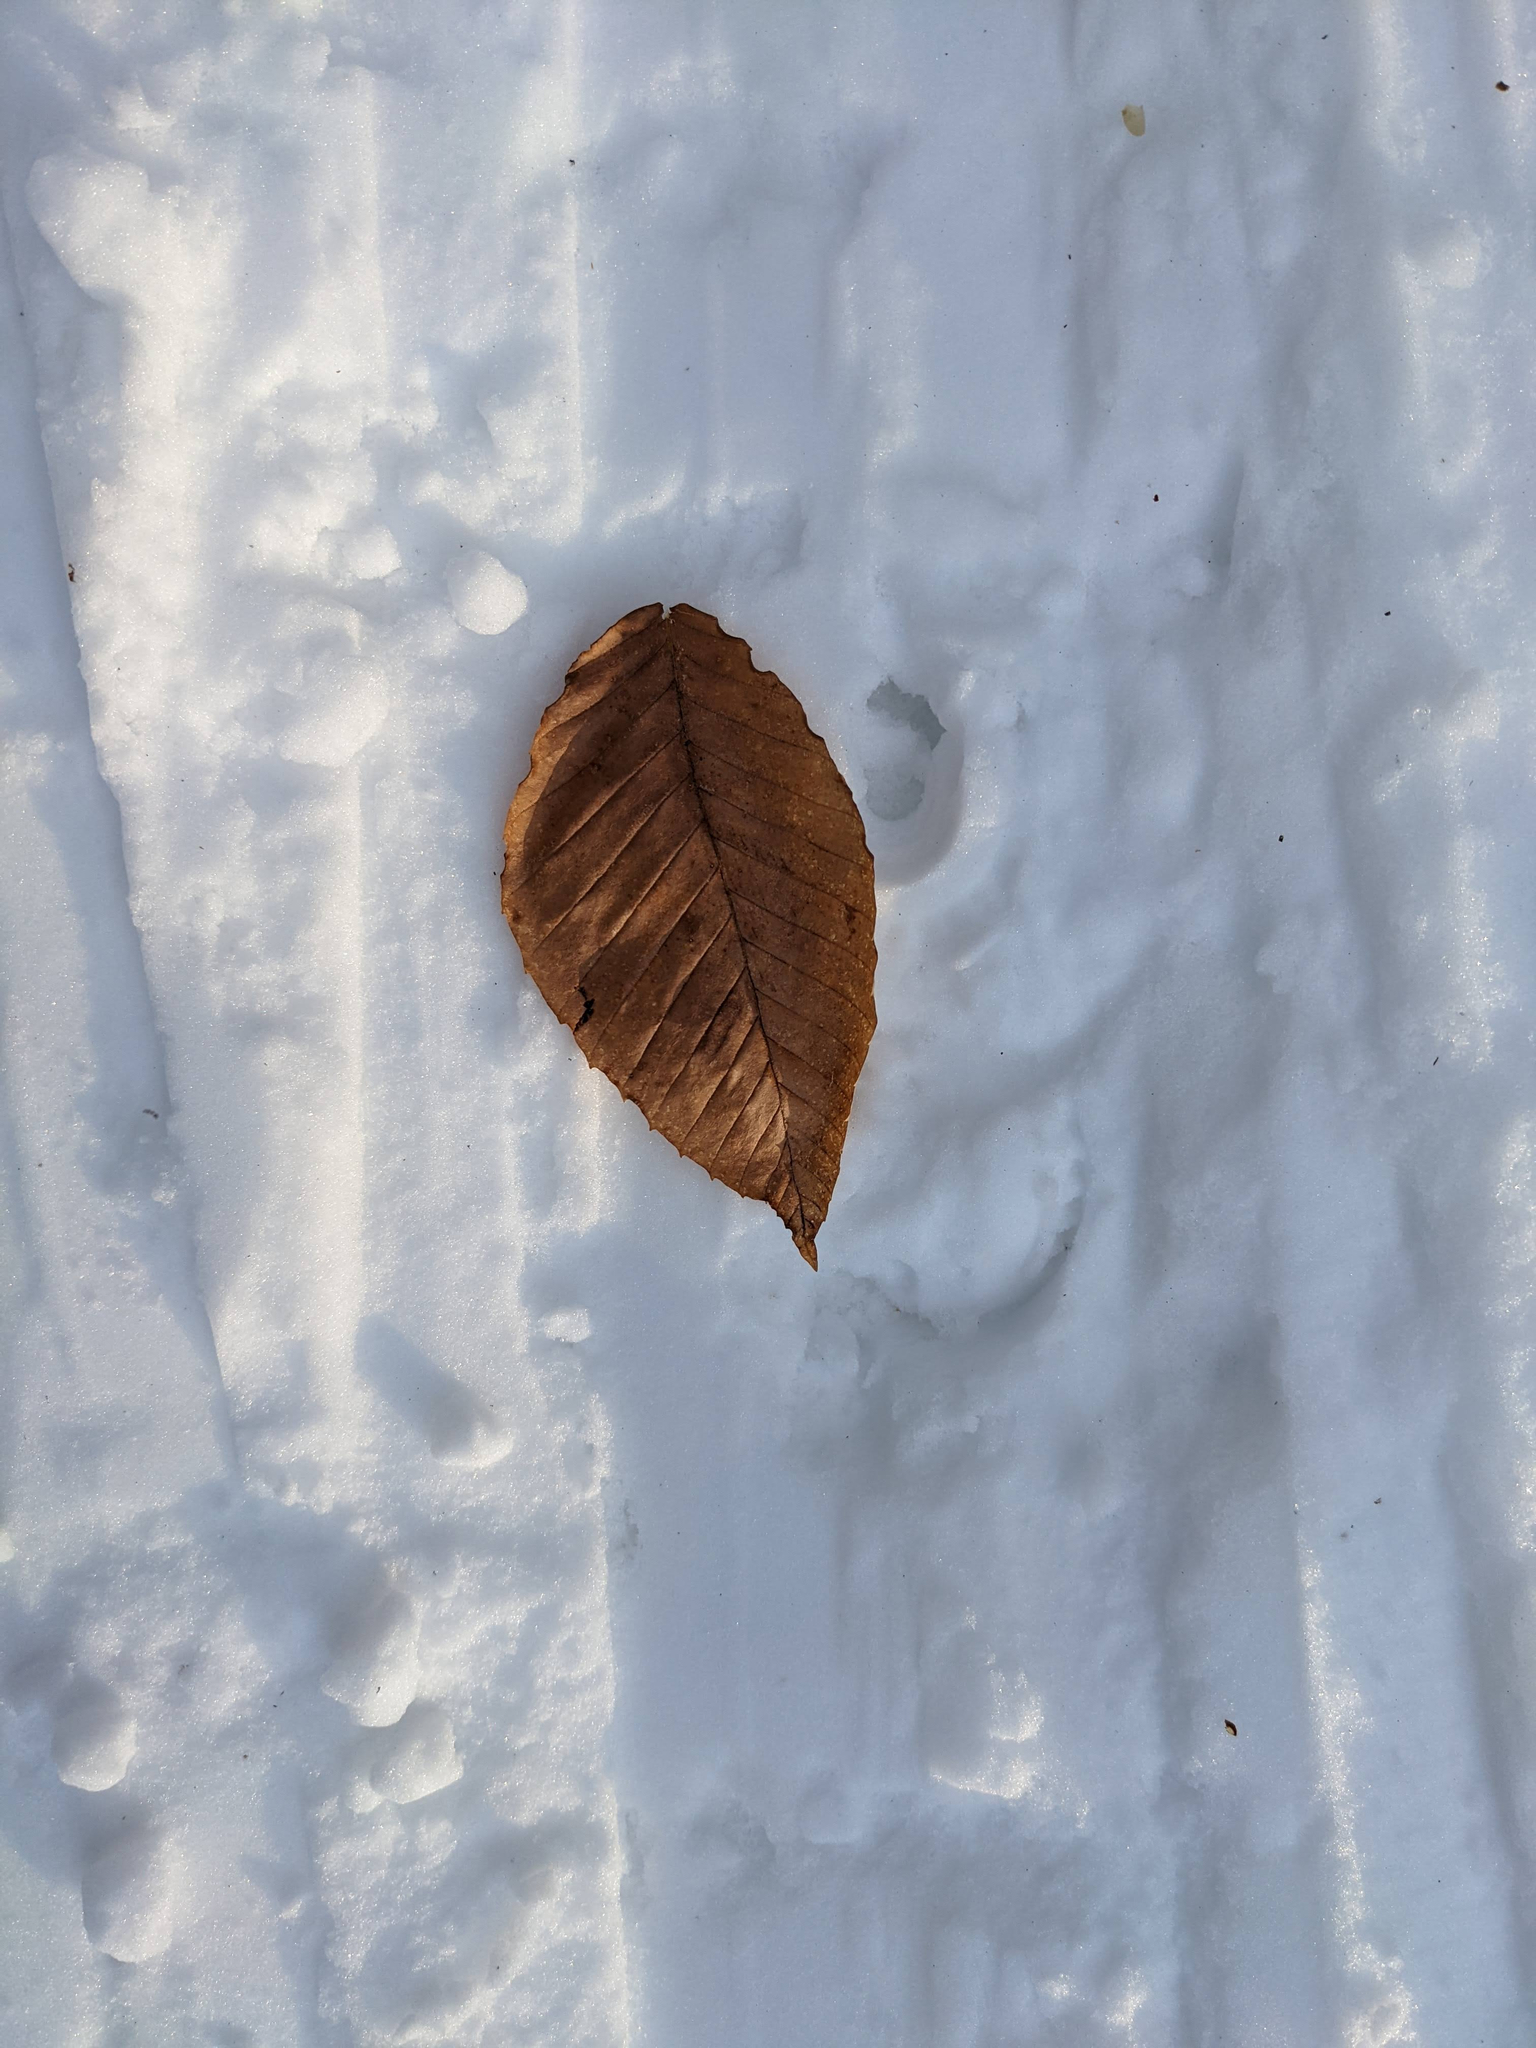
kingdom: Plantae
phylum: Tracheophyta
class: Magnoliopsida
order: Fagales
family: Fagaceae
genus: Fagus
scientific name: Fagus grandifolia
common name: American beech
